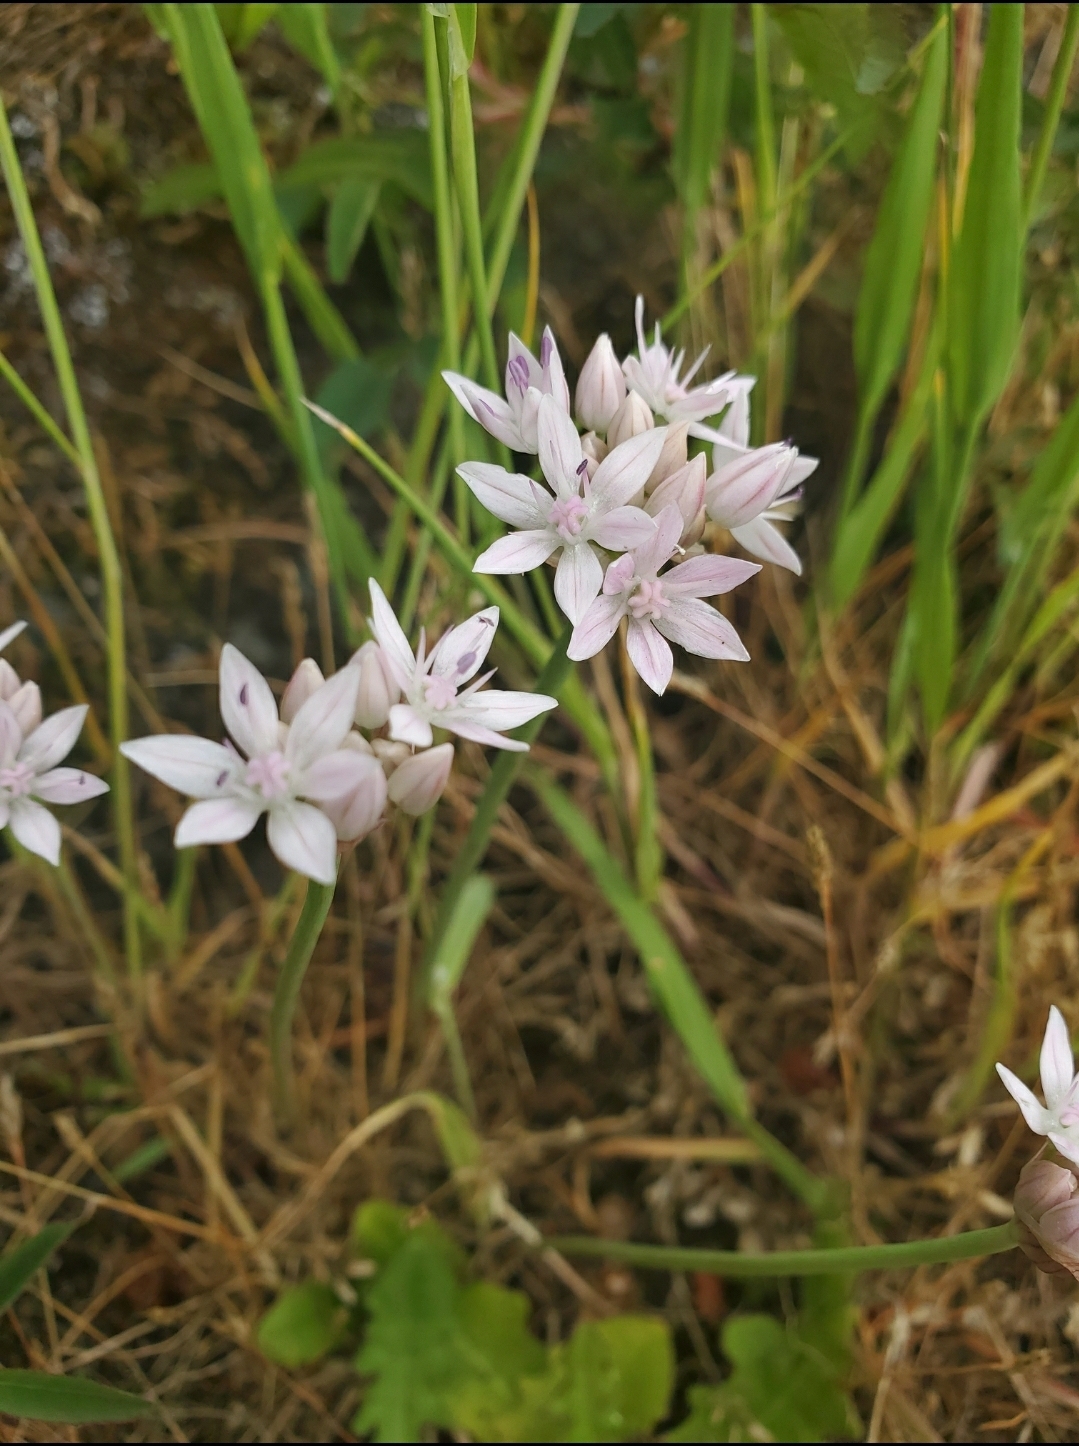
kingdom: Plantae
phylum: Tracheophyta
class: Liliopsida
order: Asparagales
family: Amaryllidaceae
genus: Allium
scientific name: Allium amplectens
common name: Narrow-leaved onion
